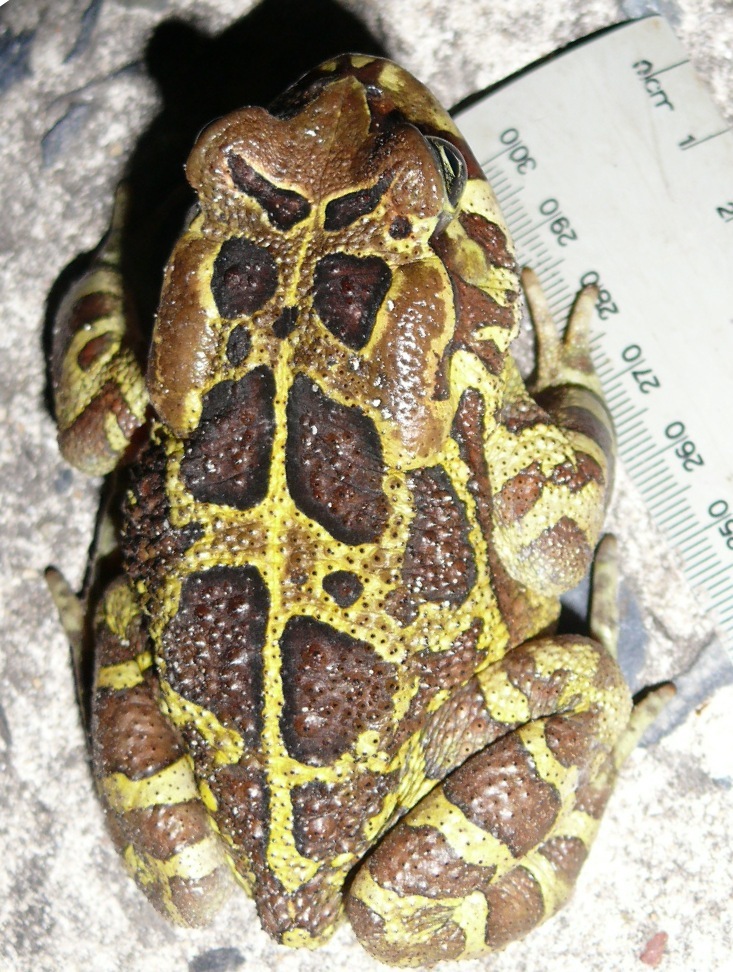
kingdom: Animalia
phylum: Chordata
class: Amphibia
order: Anura
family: Bufonidae
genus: Sclerophrys
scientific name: Sclerophrys pantherina
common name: Panther toad
